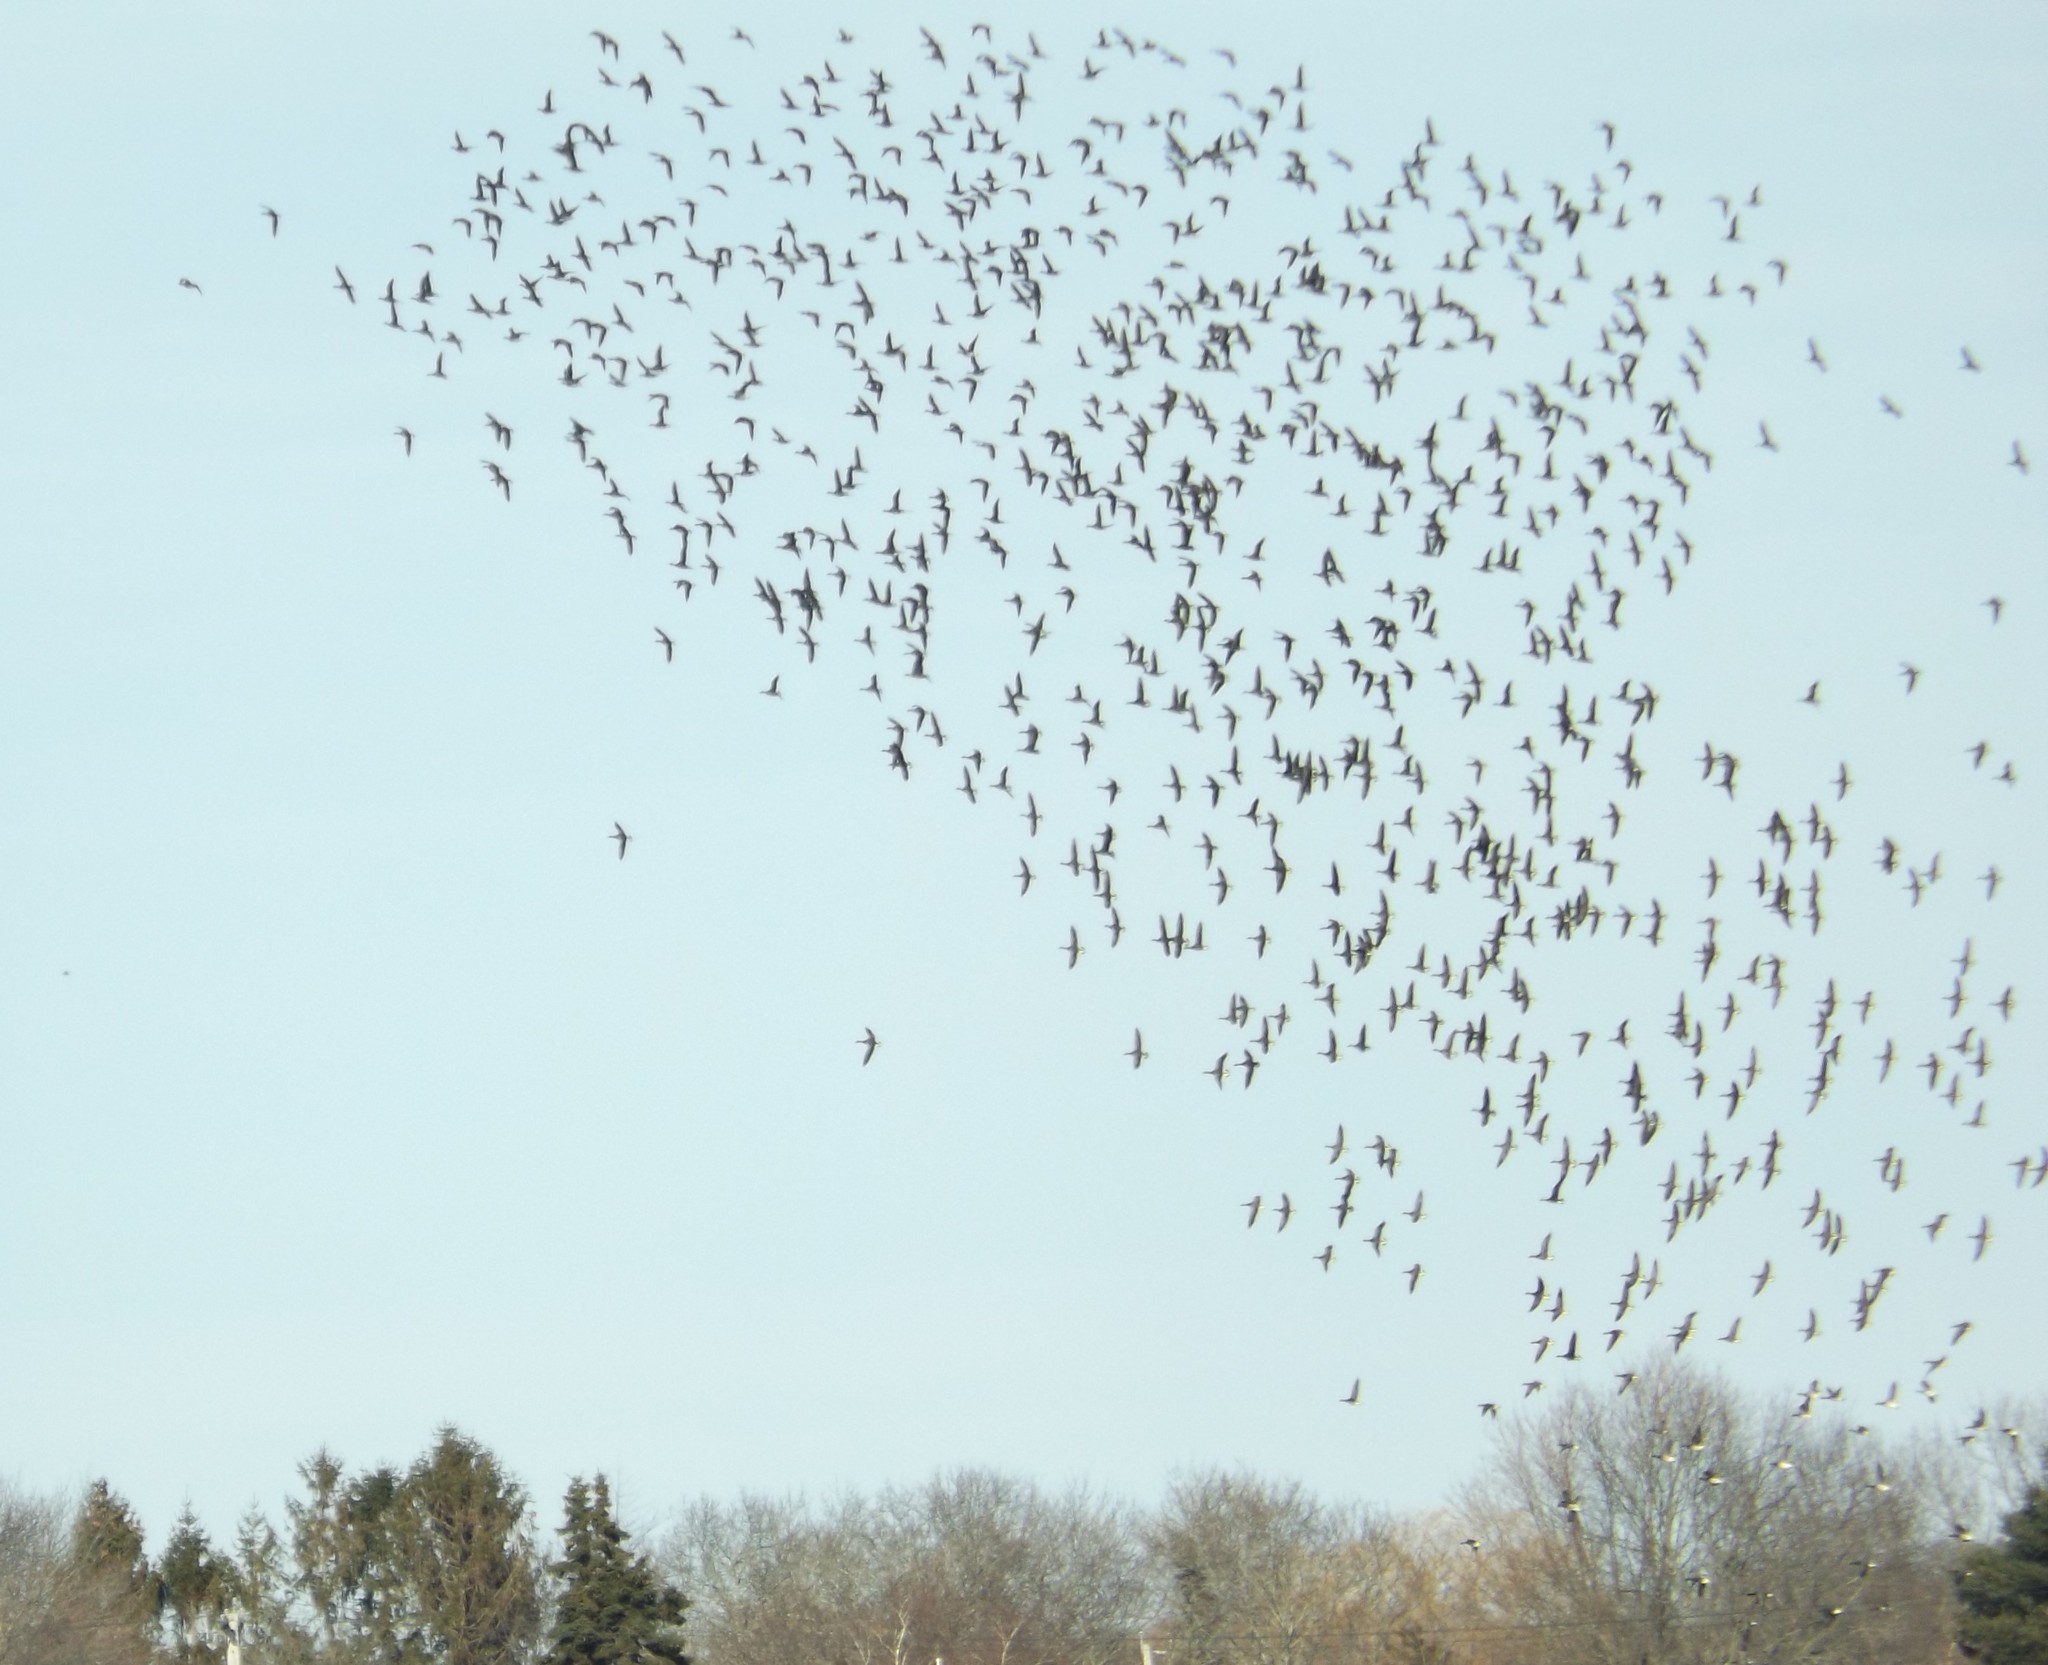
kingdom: Animalia
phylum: Chordata
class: Aves
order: Anseriformes
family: Anatidae
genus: Branta
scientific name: Branta bernicla
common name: Brant goose
